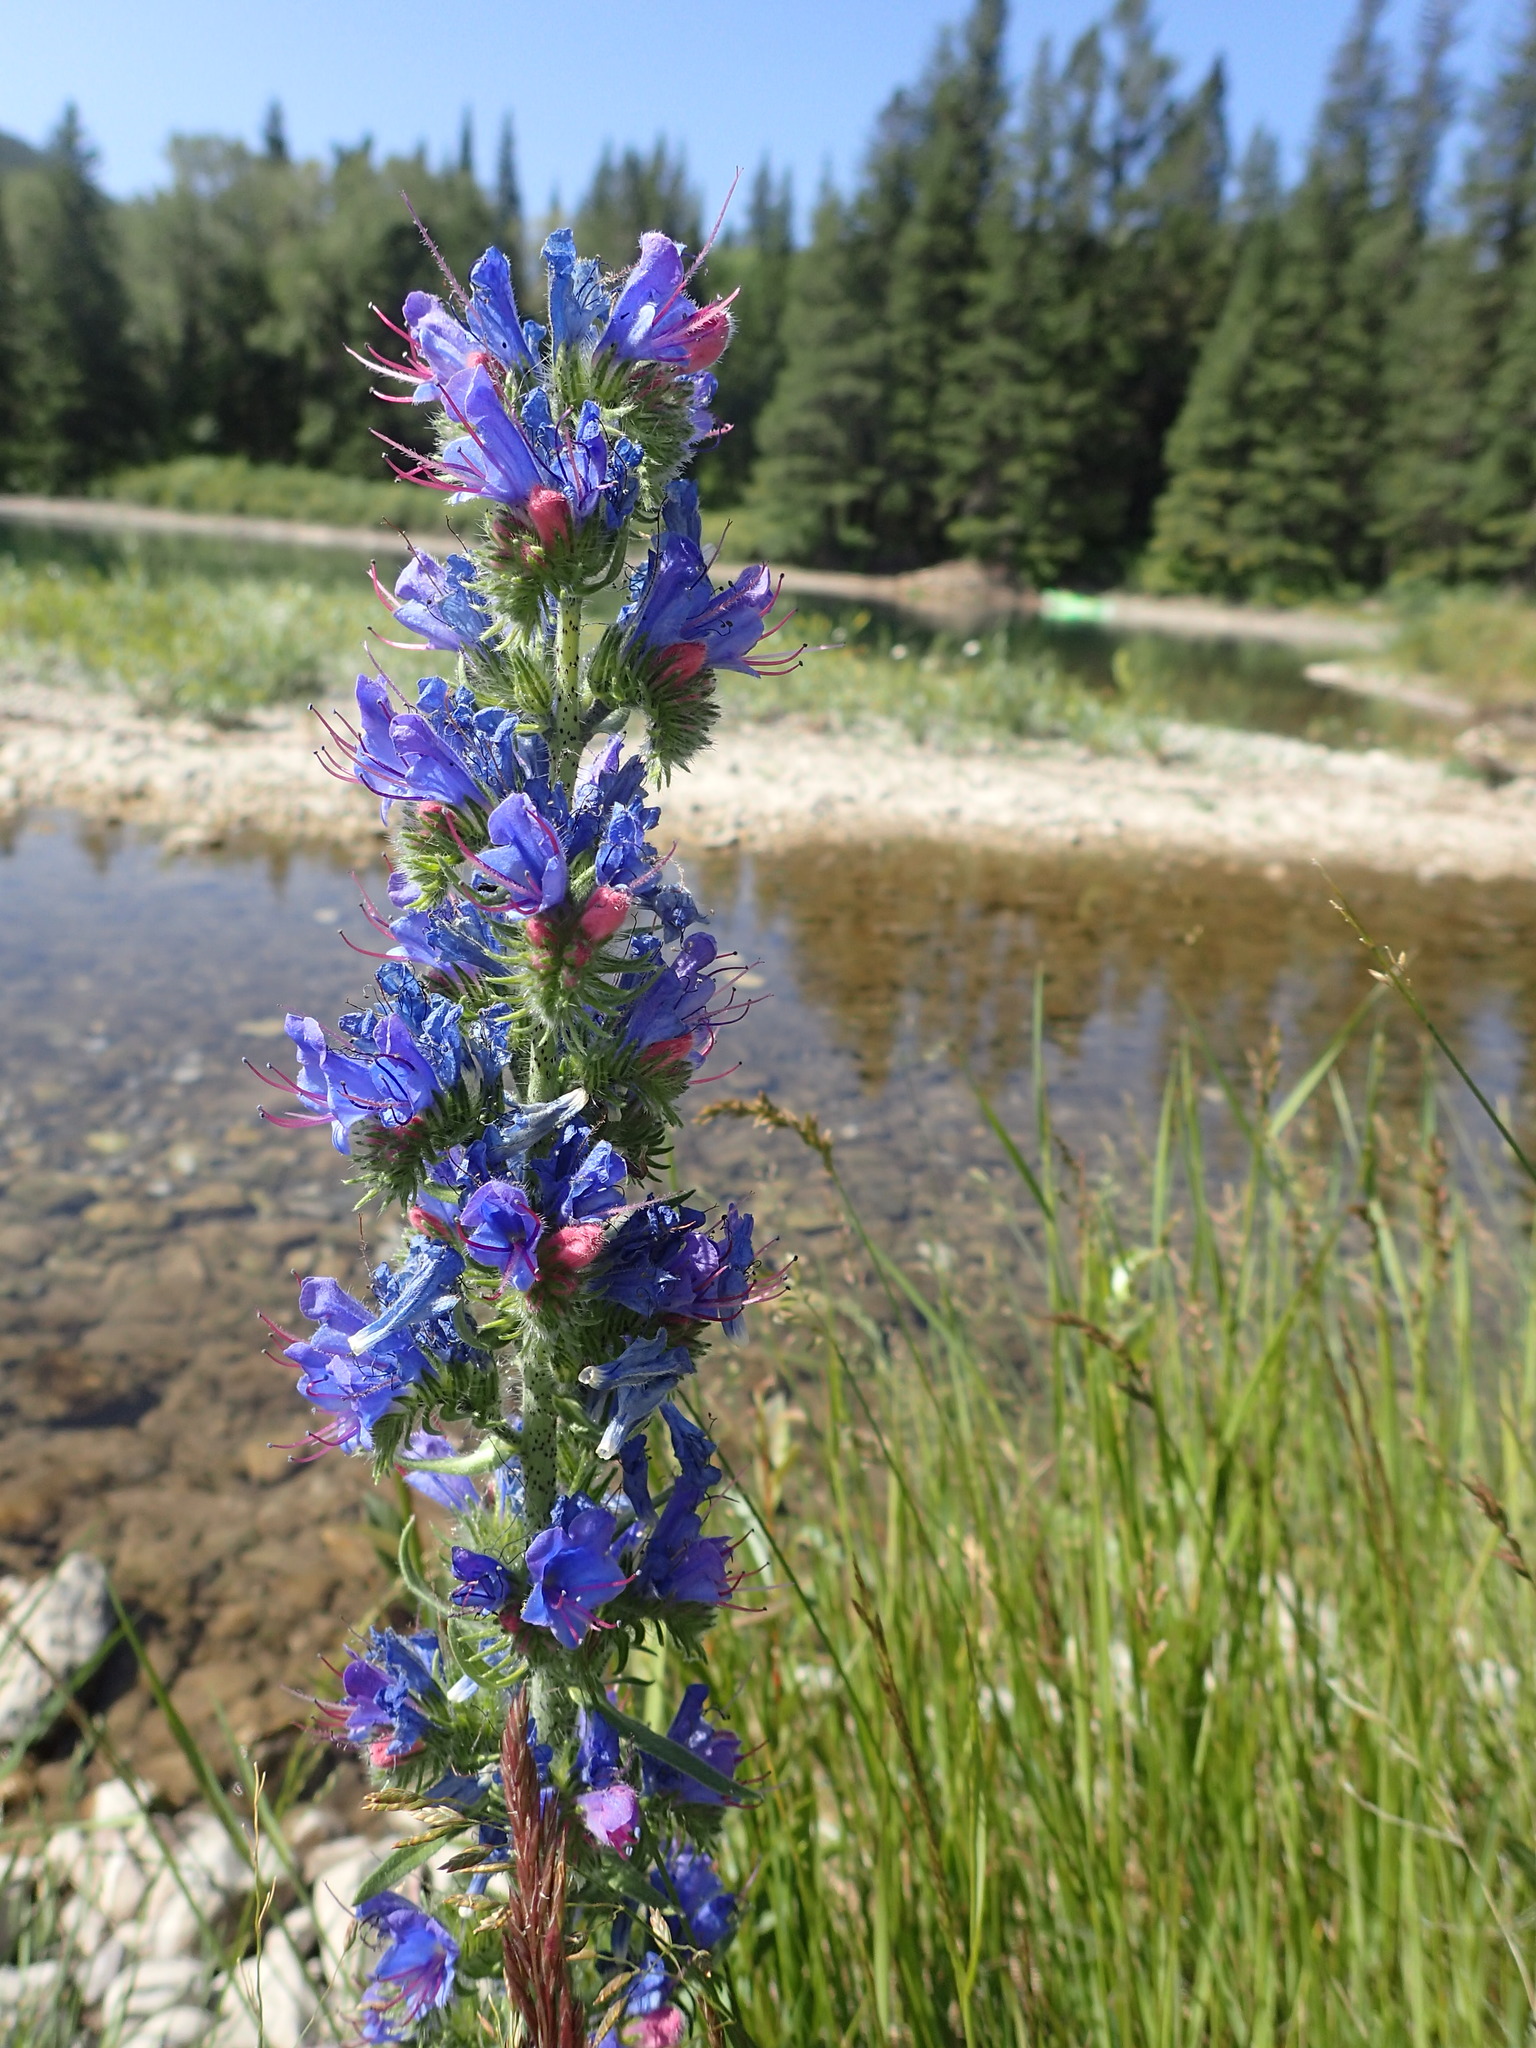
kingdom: Plantae
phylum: Tracheophyta
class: Magnoliopsida
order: Boraginales
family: Boraginaceae
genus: Echium
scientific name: Echium vulgare
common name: Common viper's bugloss
